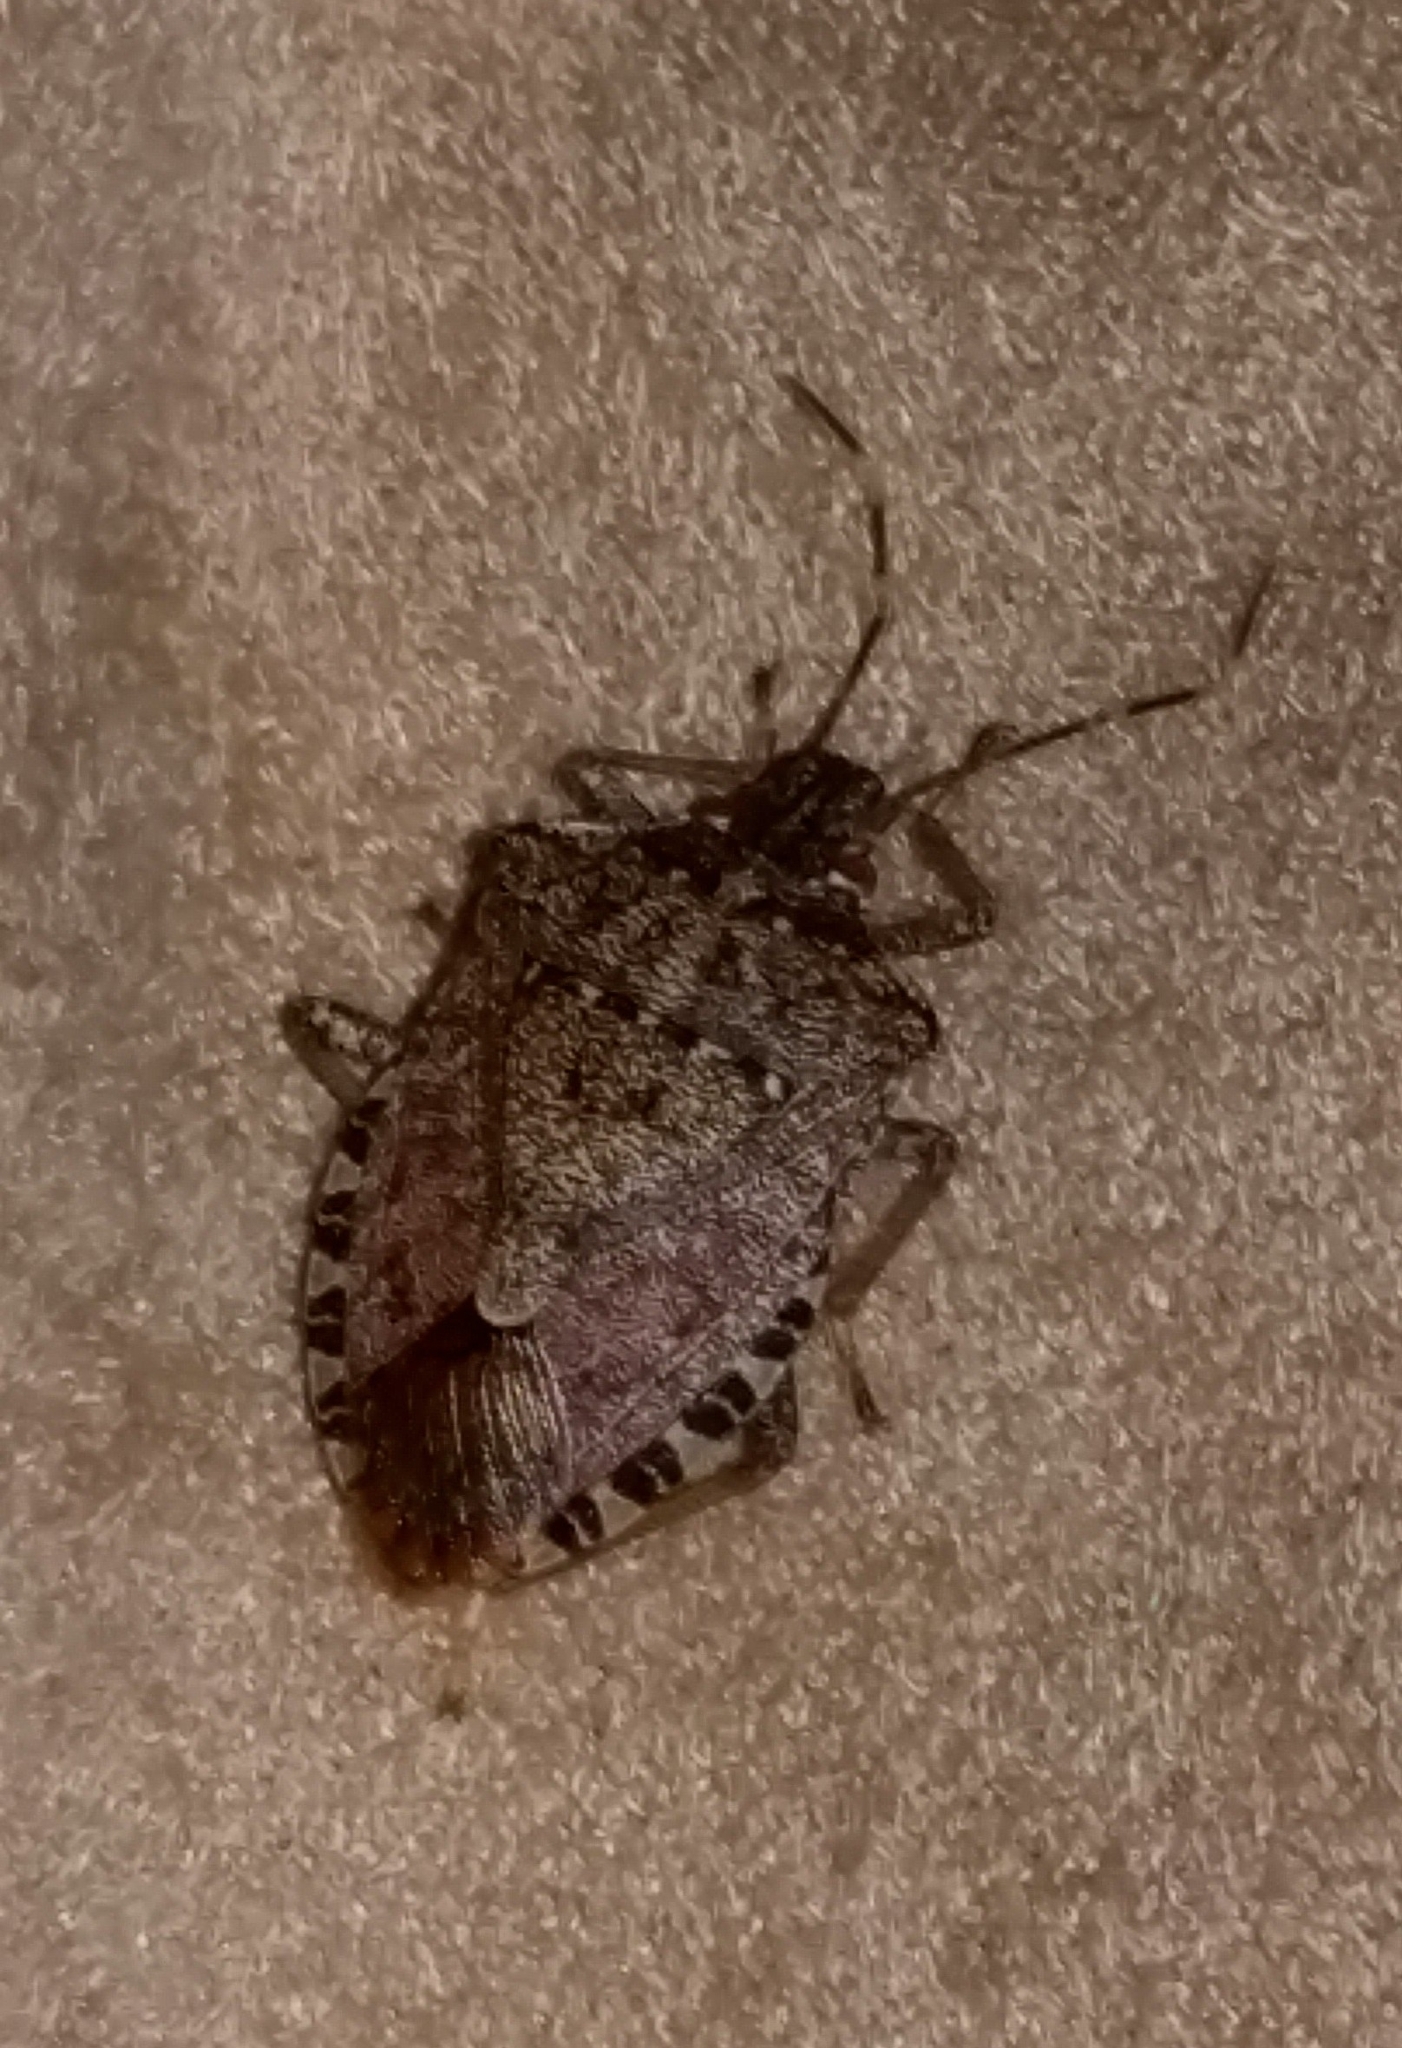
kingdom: Animalia
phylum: Arthropoda
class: Insecta
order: Hemiptera
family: Pentatomidae
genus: Halyomorpha
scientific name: Halyomorpha halys
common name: Brown marmorated stink bug
